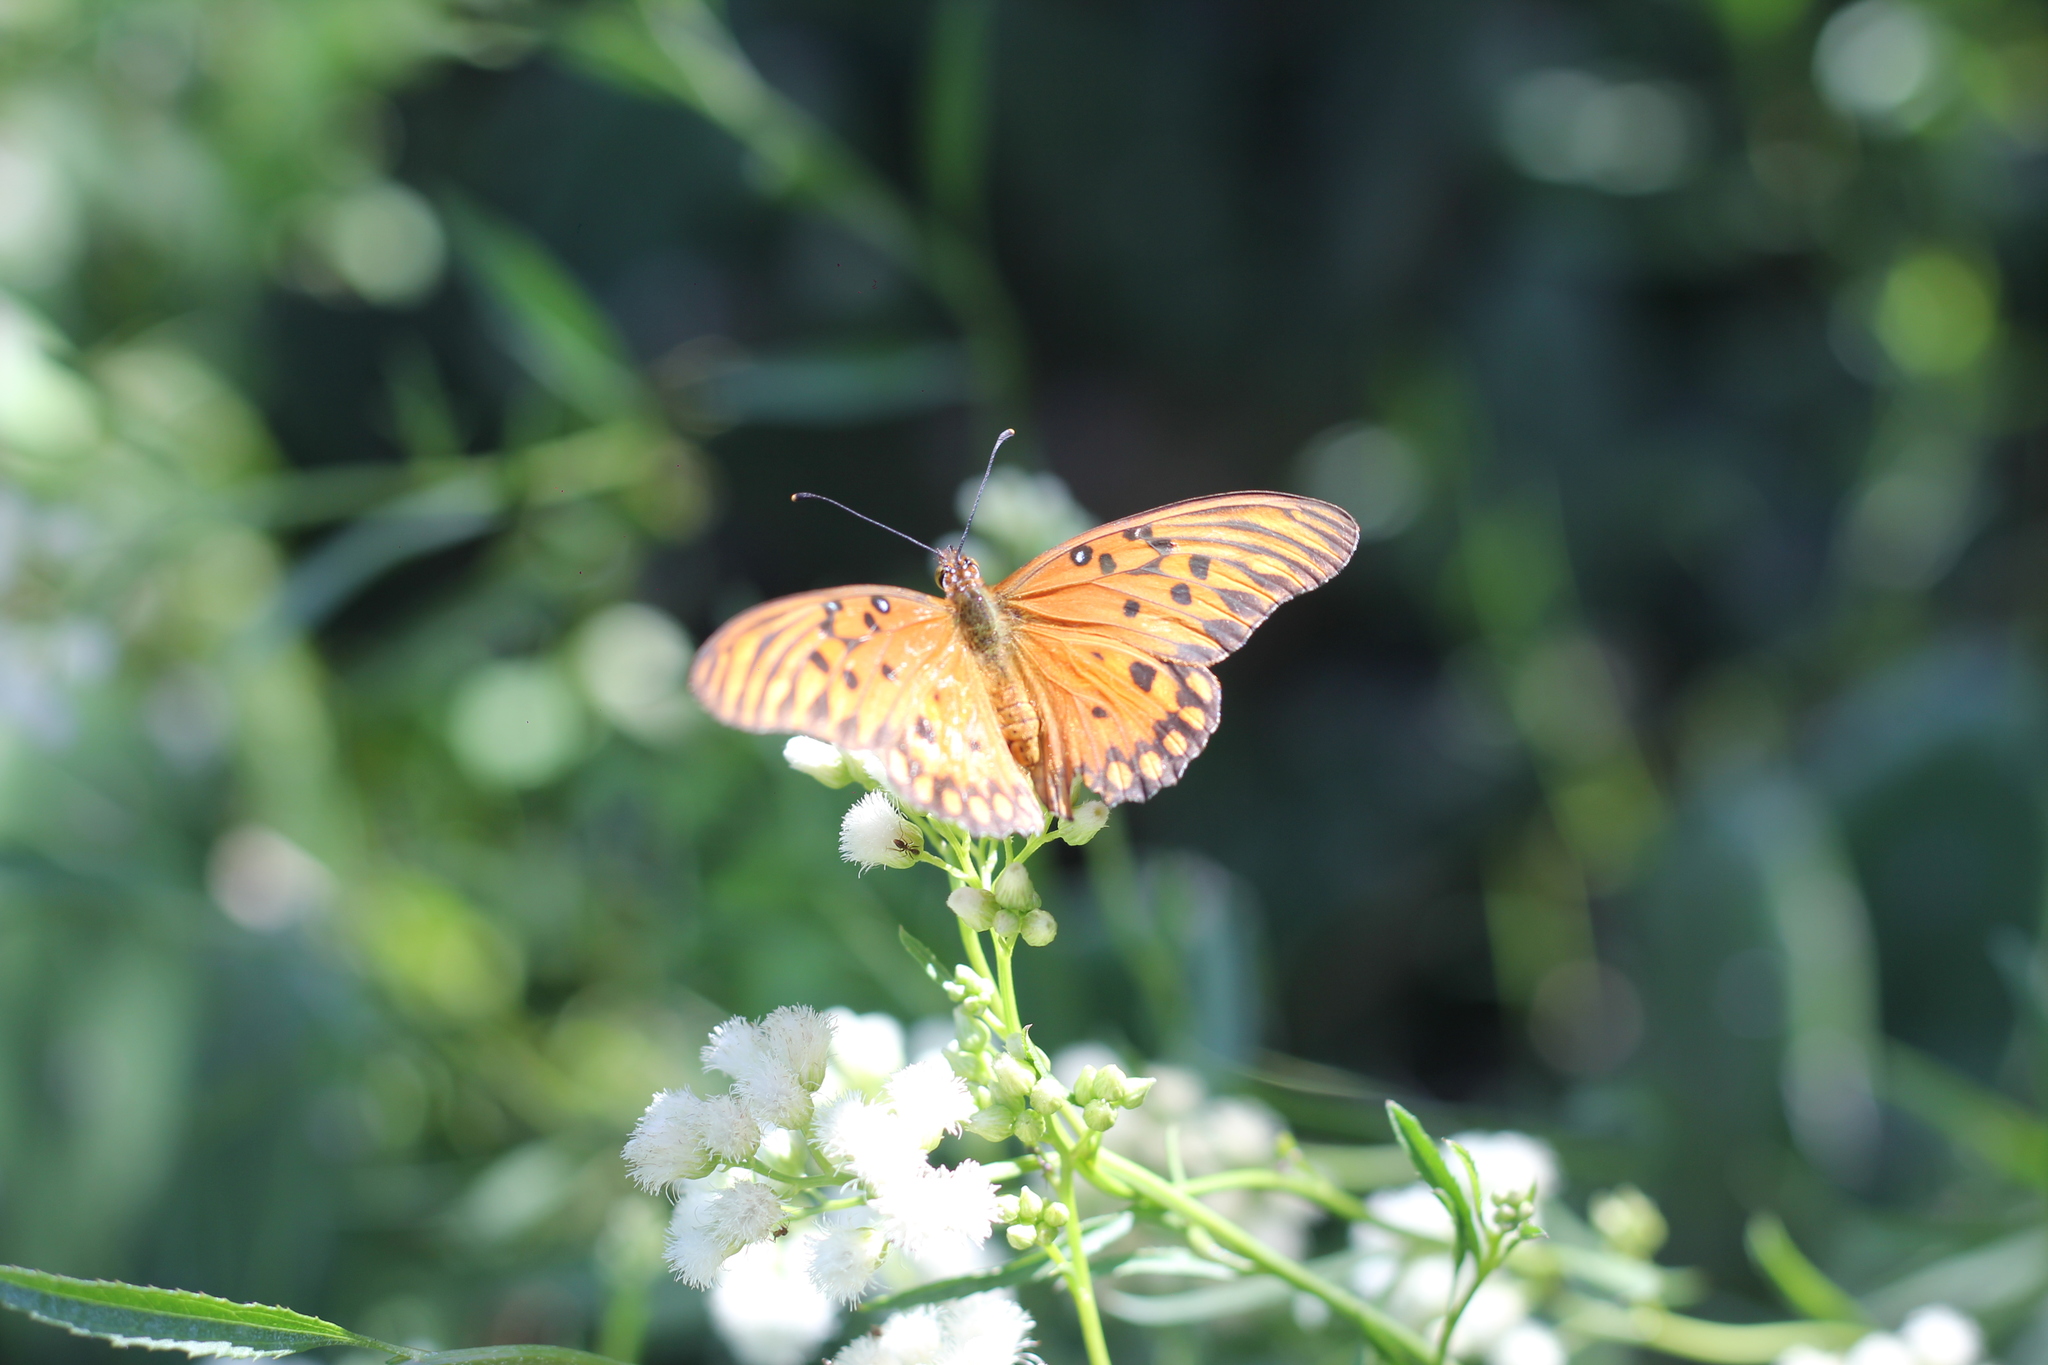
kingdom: Animalia
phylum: Arthropoda
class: Insecta
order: Lepidoptera
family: Nymphalidae
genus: Dione
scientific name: Dione vanillae
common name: Gulf fritillary
